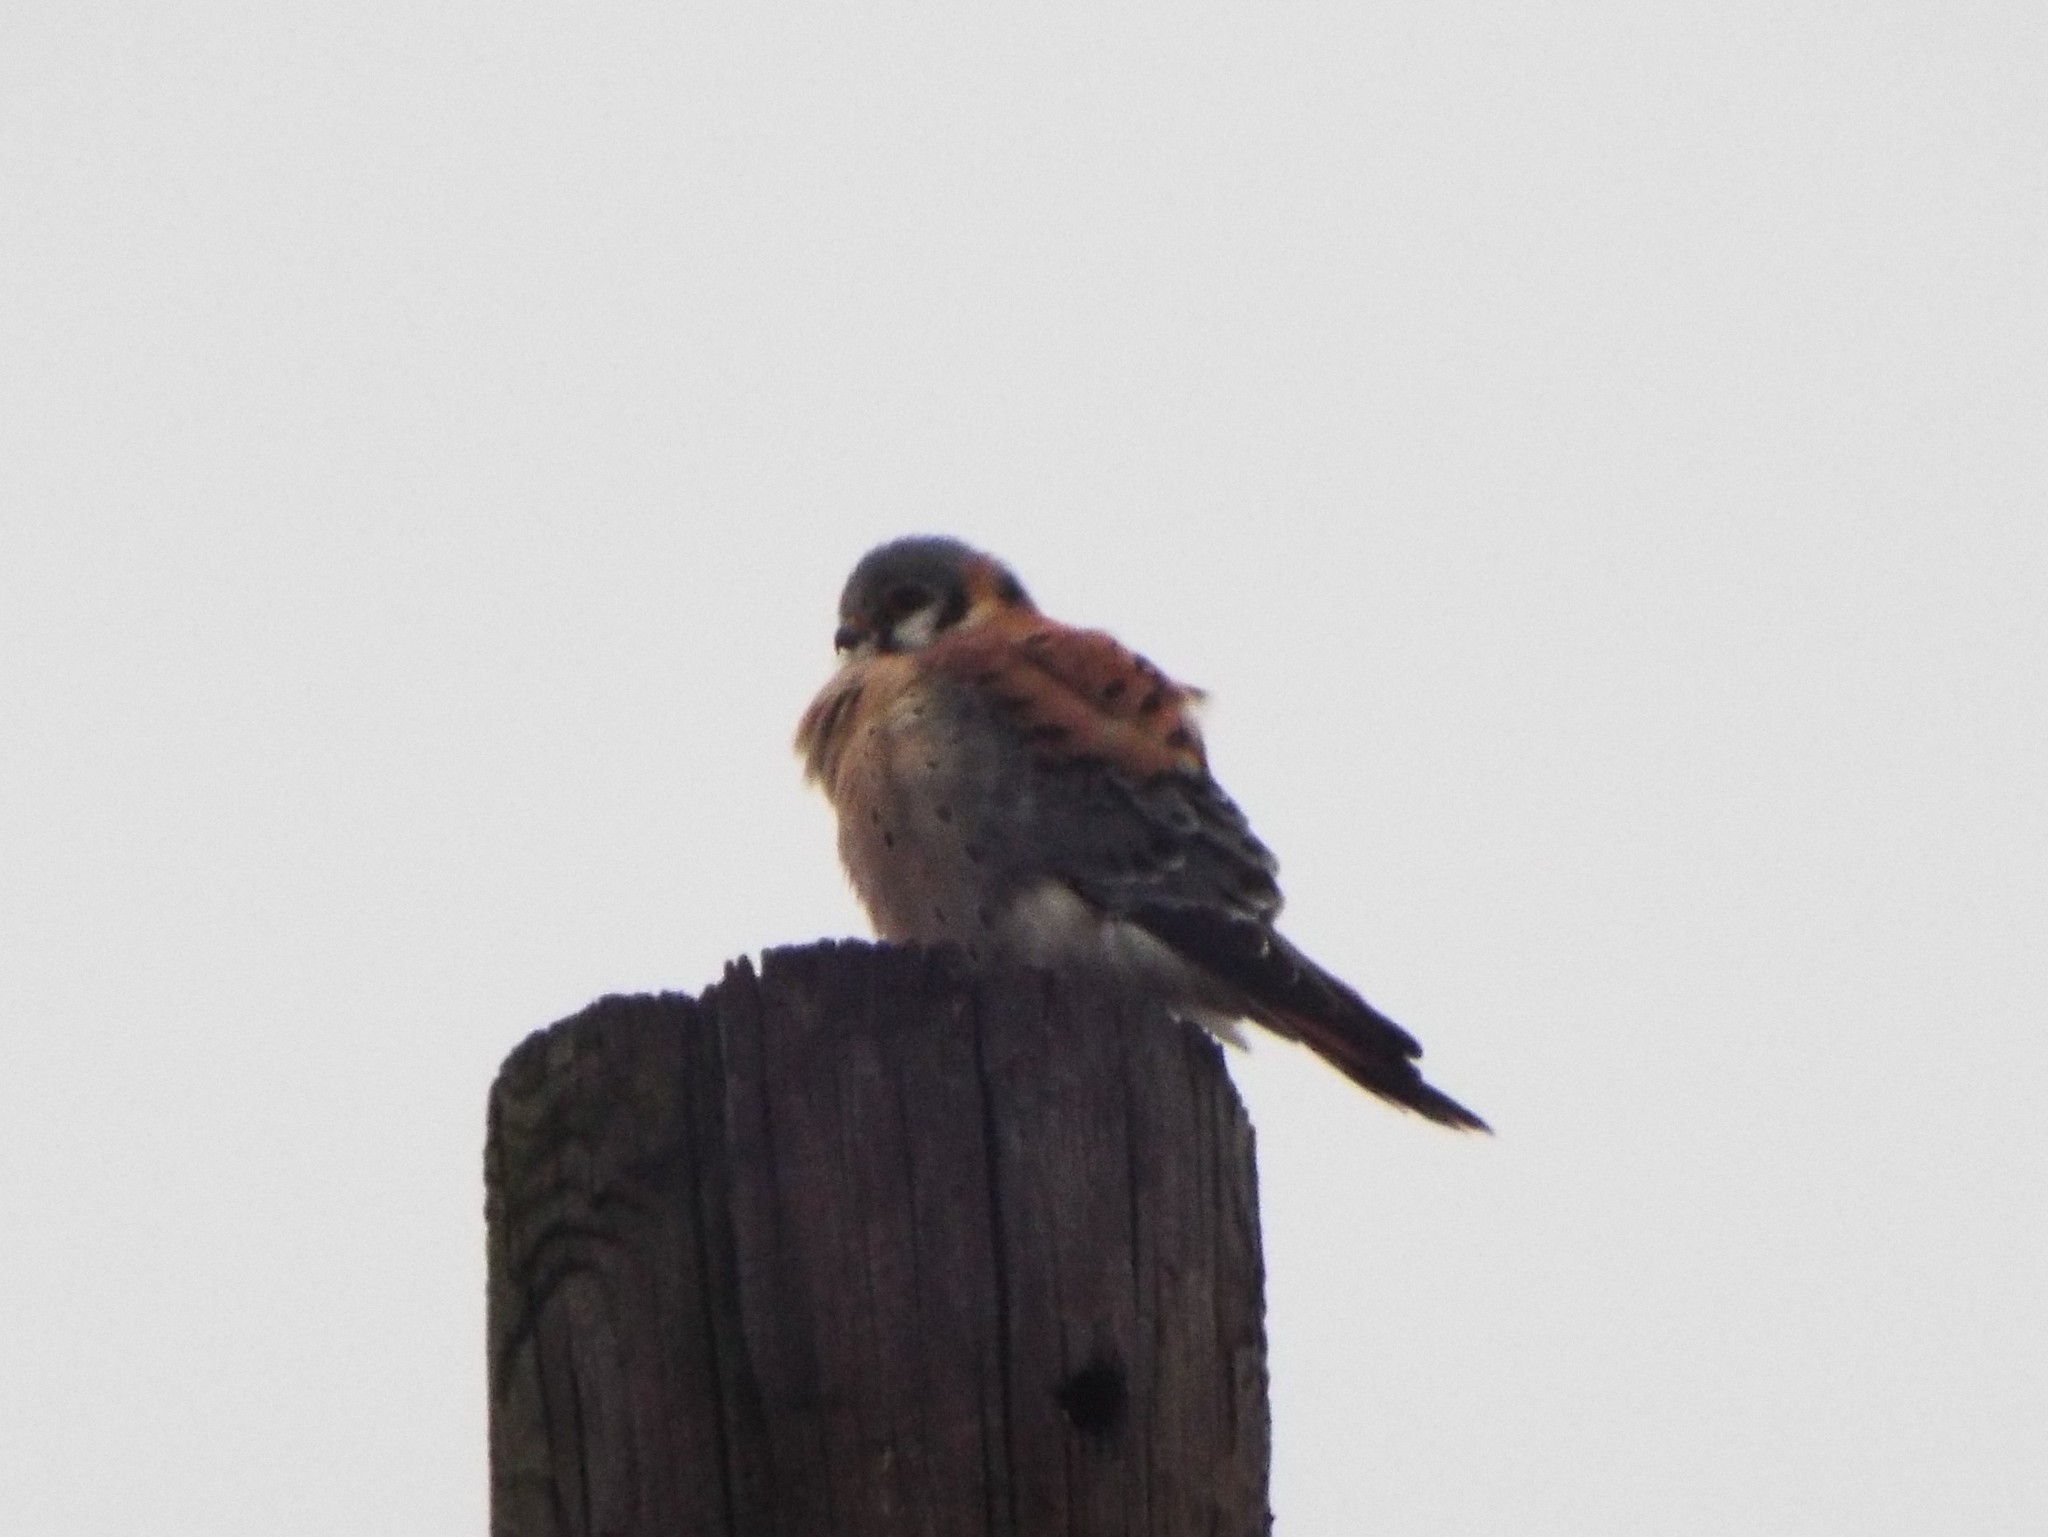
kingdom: Animalia
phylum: Chordata
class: Aves
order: Falconiformes
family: Falconidae
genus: Falco
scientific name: Falco sparverius
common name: American kestrel
